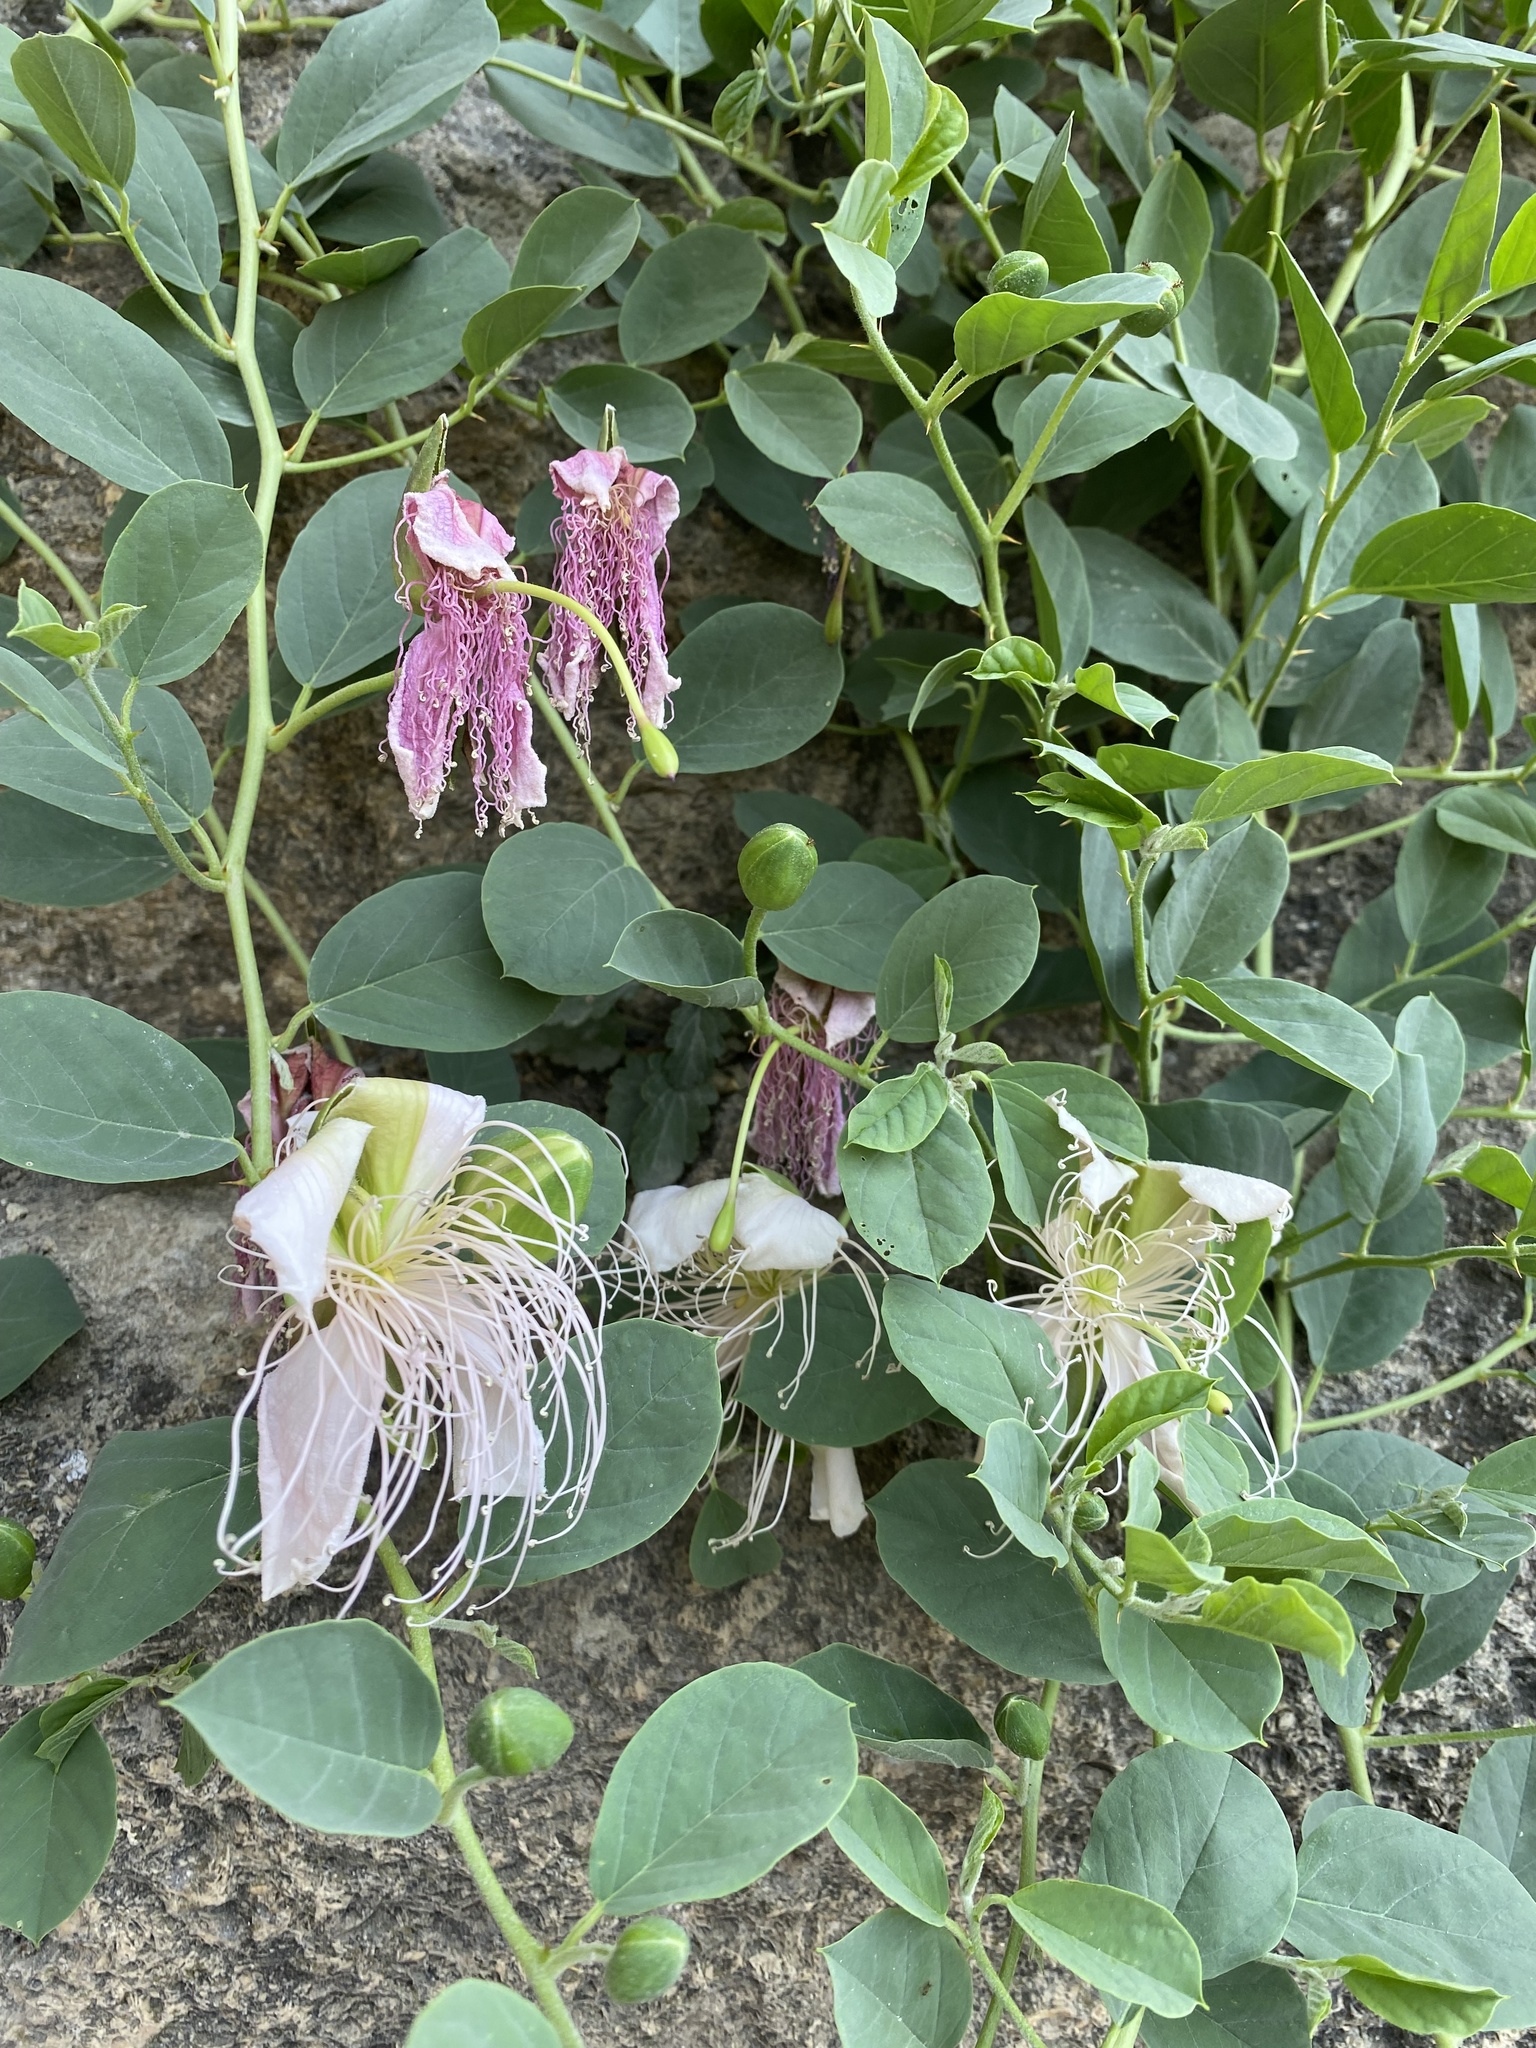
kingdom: Plantae
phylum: Tracheophyta
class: Magnoliopsida
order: Brassicales
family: Capparaceae
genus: Capparis
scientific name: Capparis spinosa
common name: Caper
